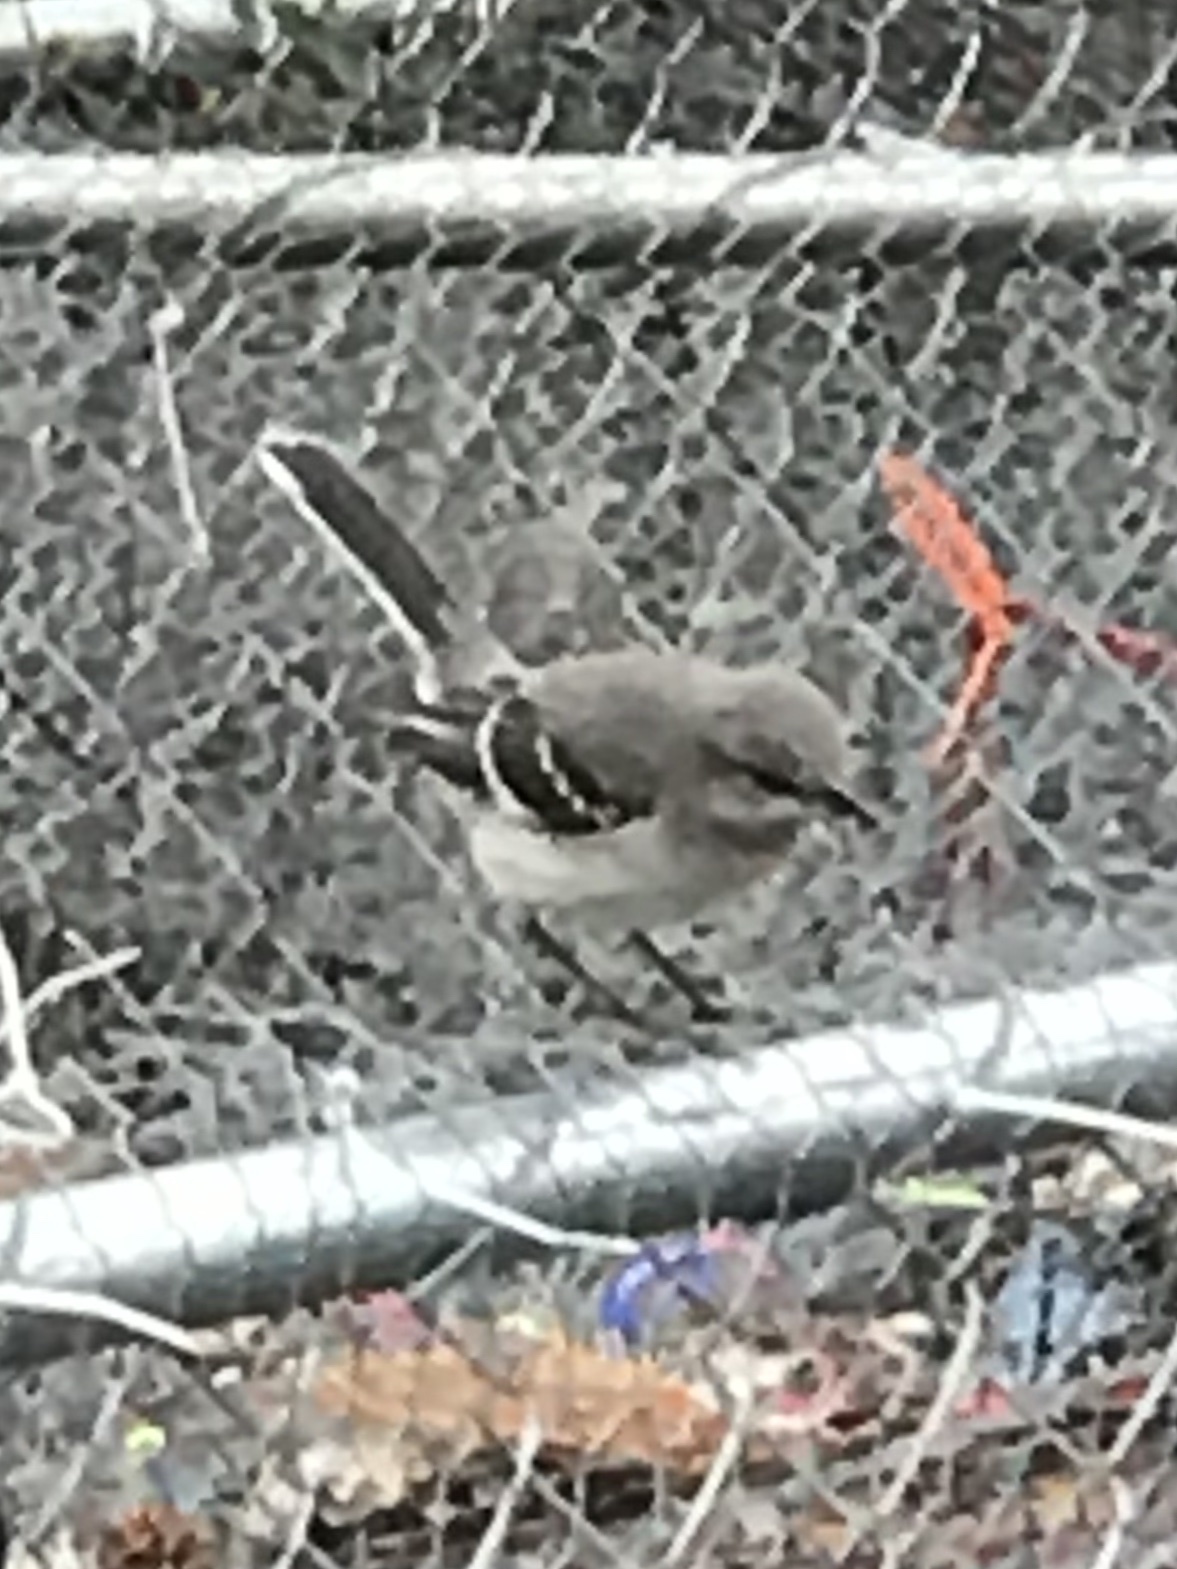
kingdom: Animalia
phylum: Chordata
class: Aves
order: Passeriformes
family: Mimidae
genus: Mimus
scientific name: Mimus polyglottos
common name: Northern mockingbird
